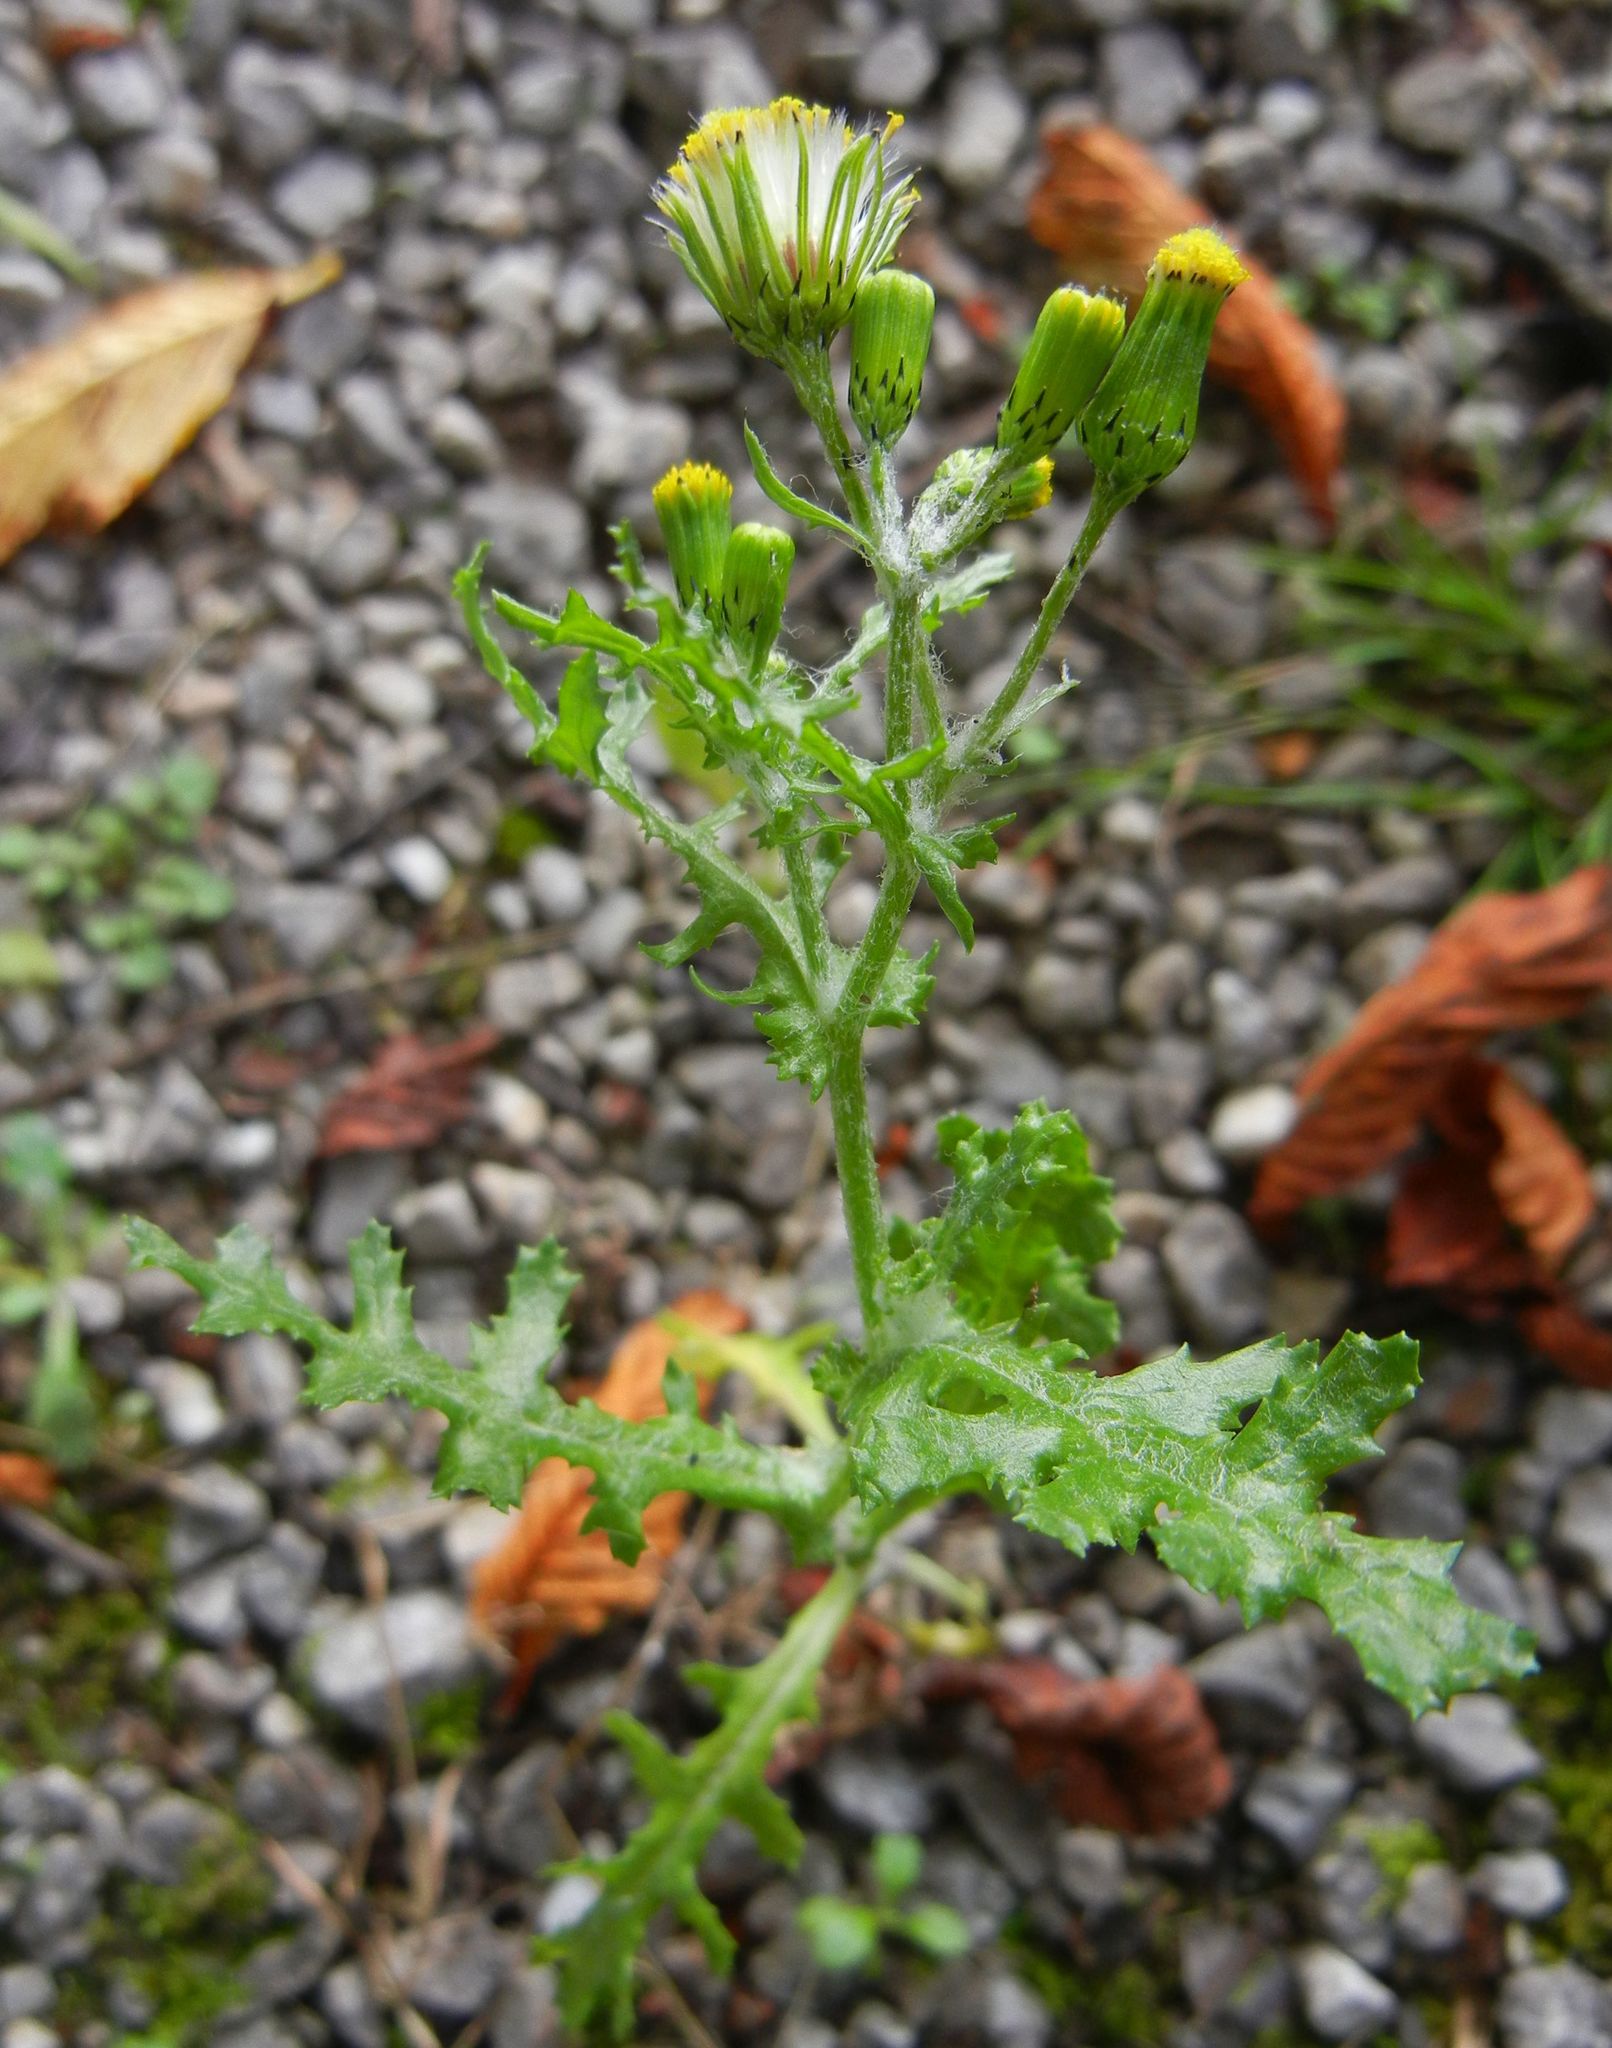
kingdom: Plantae
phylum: Tracheophyta
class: Magnoliopsida
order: Asterales
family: Asteraceae
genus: Senecio
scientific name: Senecio vulgaris
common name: Old-man-in-the-spring
